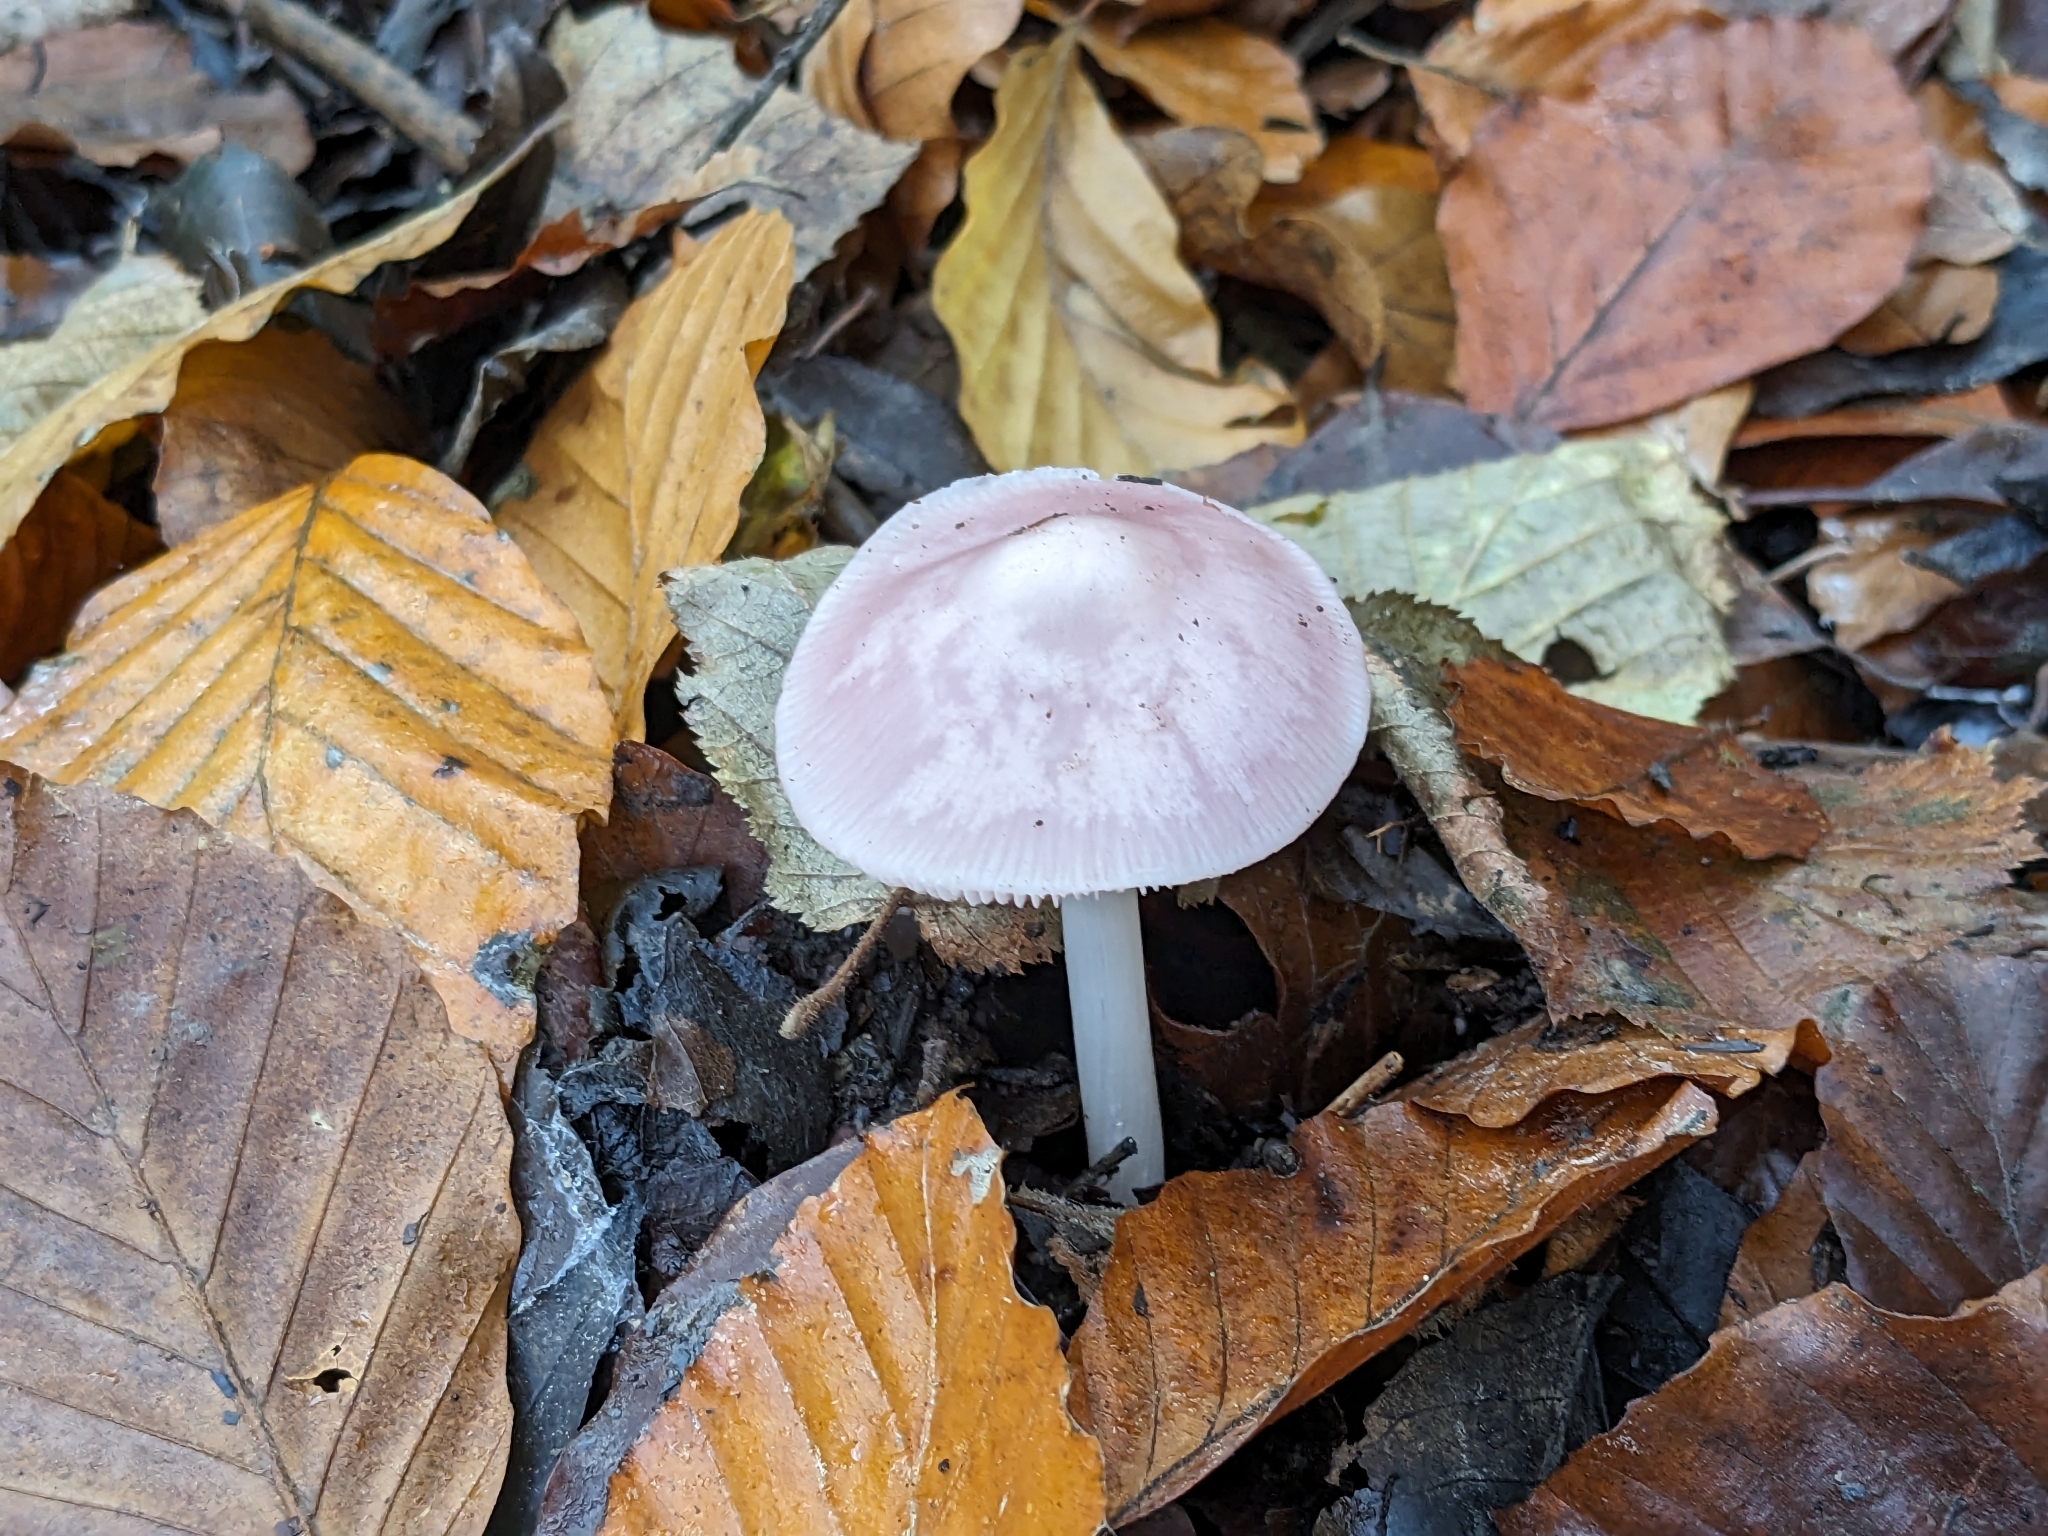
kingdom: Fungi
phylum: Basidiomycota
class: Agaricomycetes
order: Agaricales
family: Mycenaceae
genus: Mycena
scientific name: Mycena rosea
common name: Rosy bonnet
